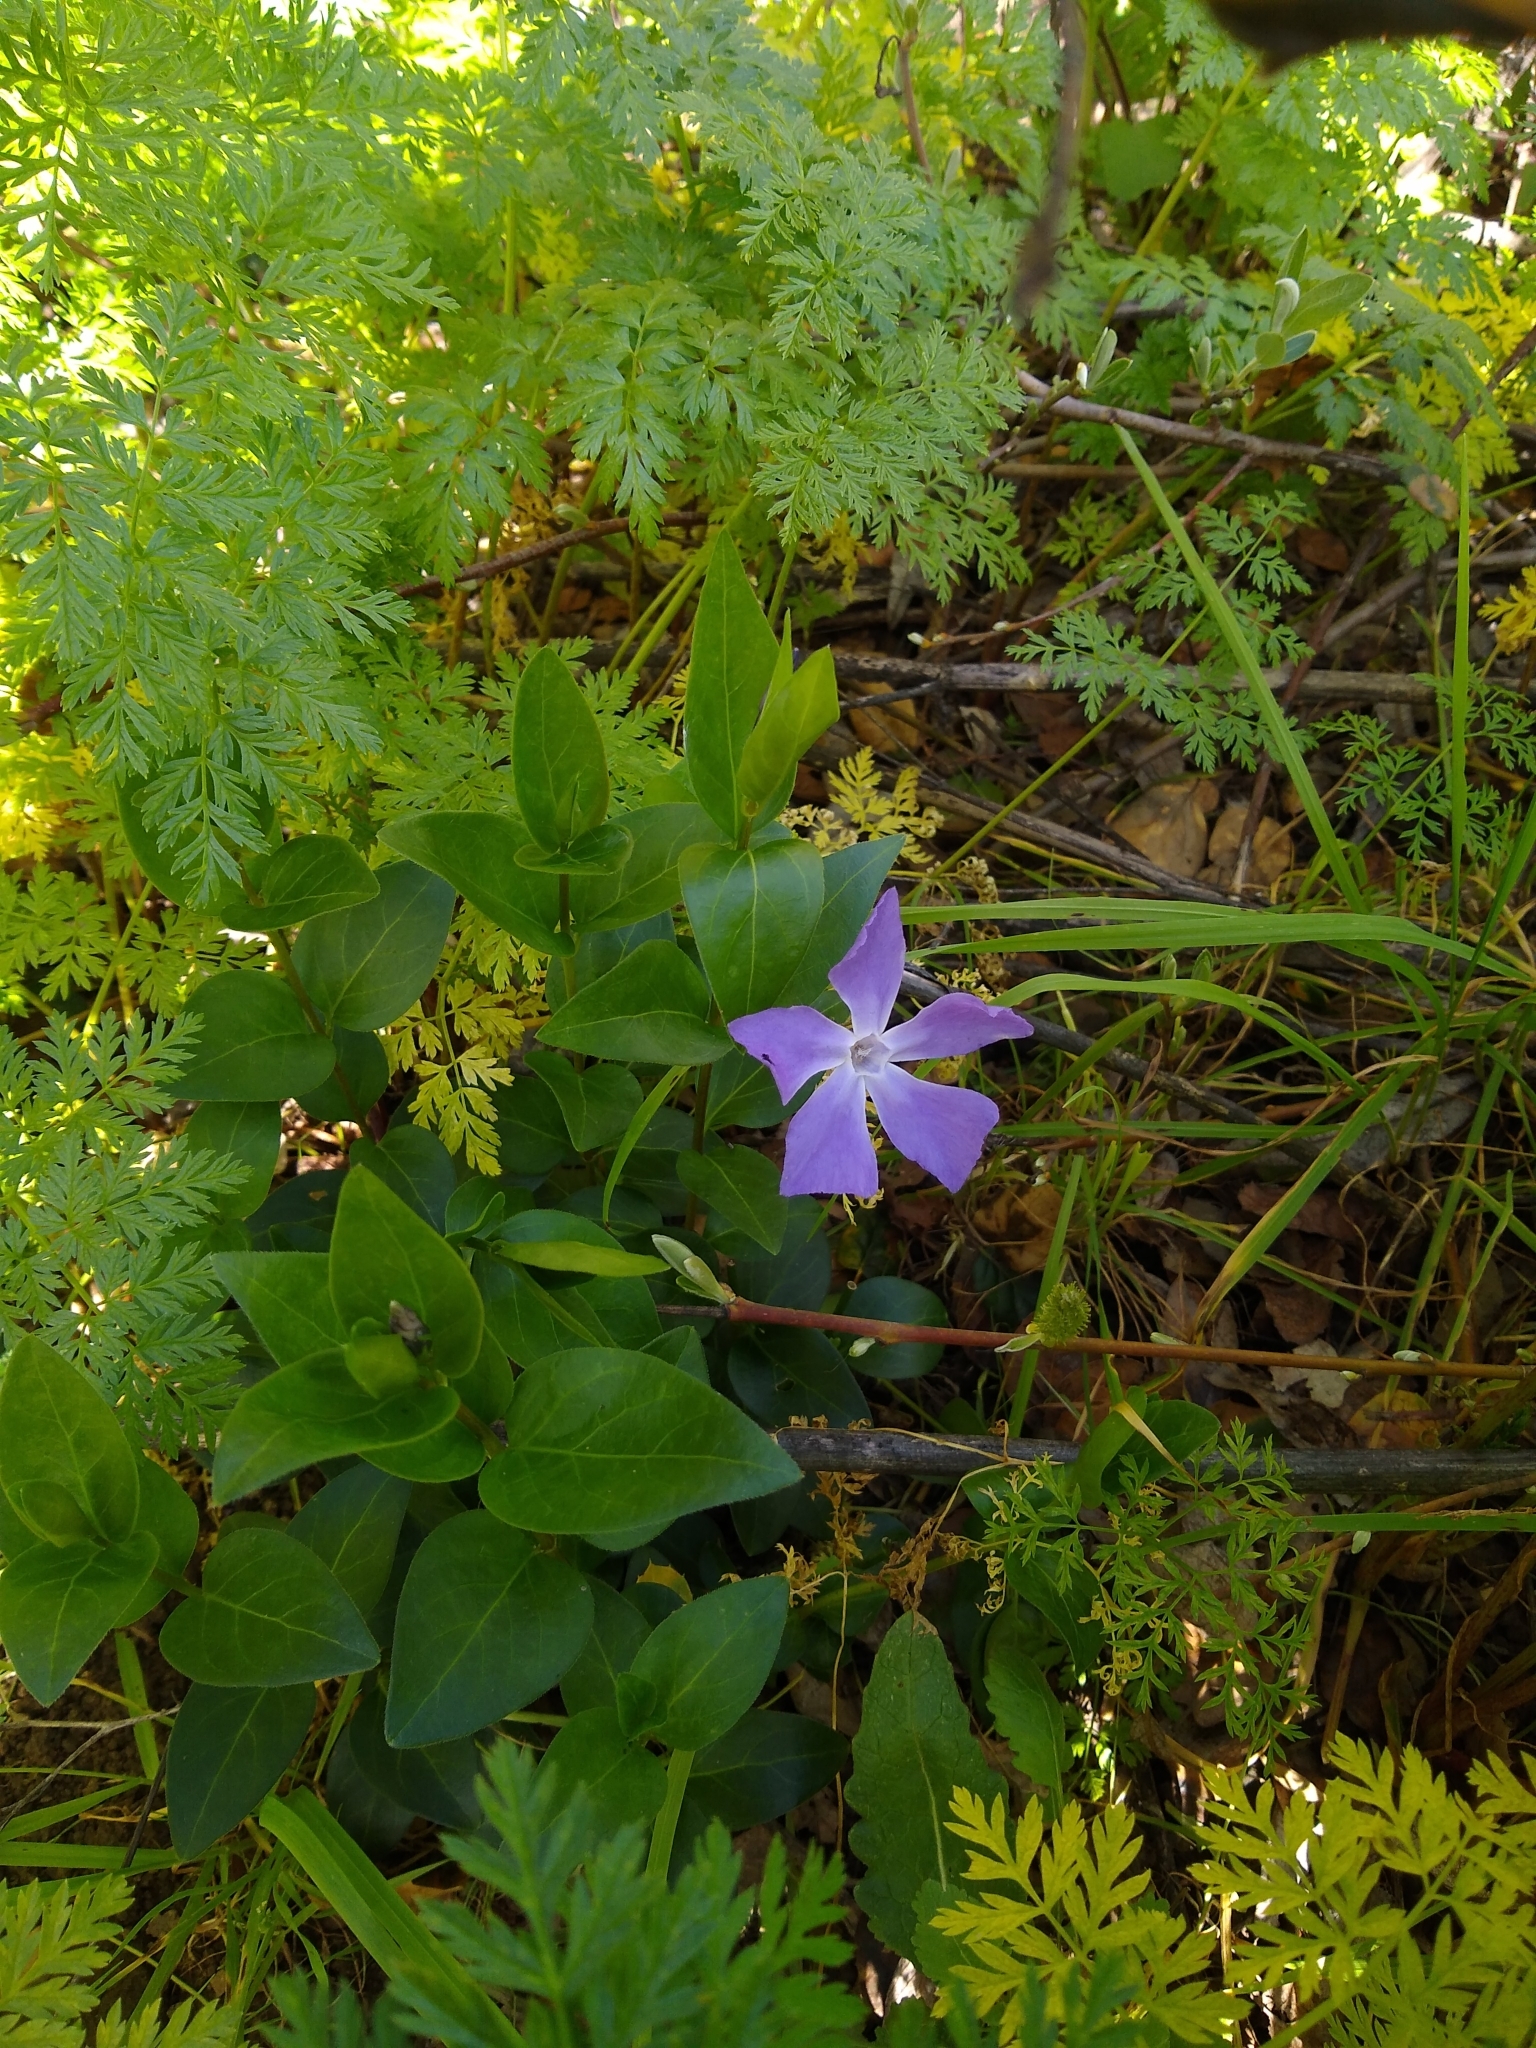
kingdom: Plantae
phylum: Tracheophyta
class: Magnoliopsida
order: Gentianales
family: Apocynaceae
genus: Vinca
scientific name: Vinca major
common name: Greater periwinkle
